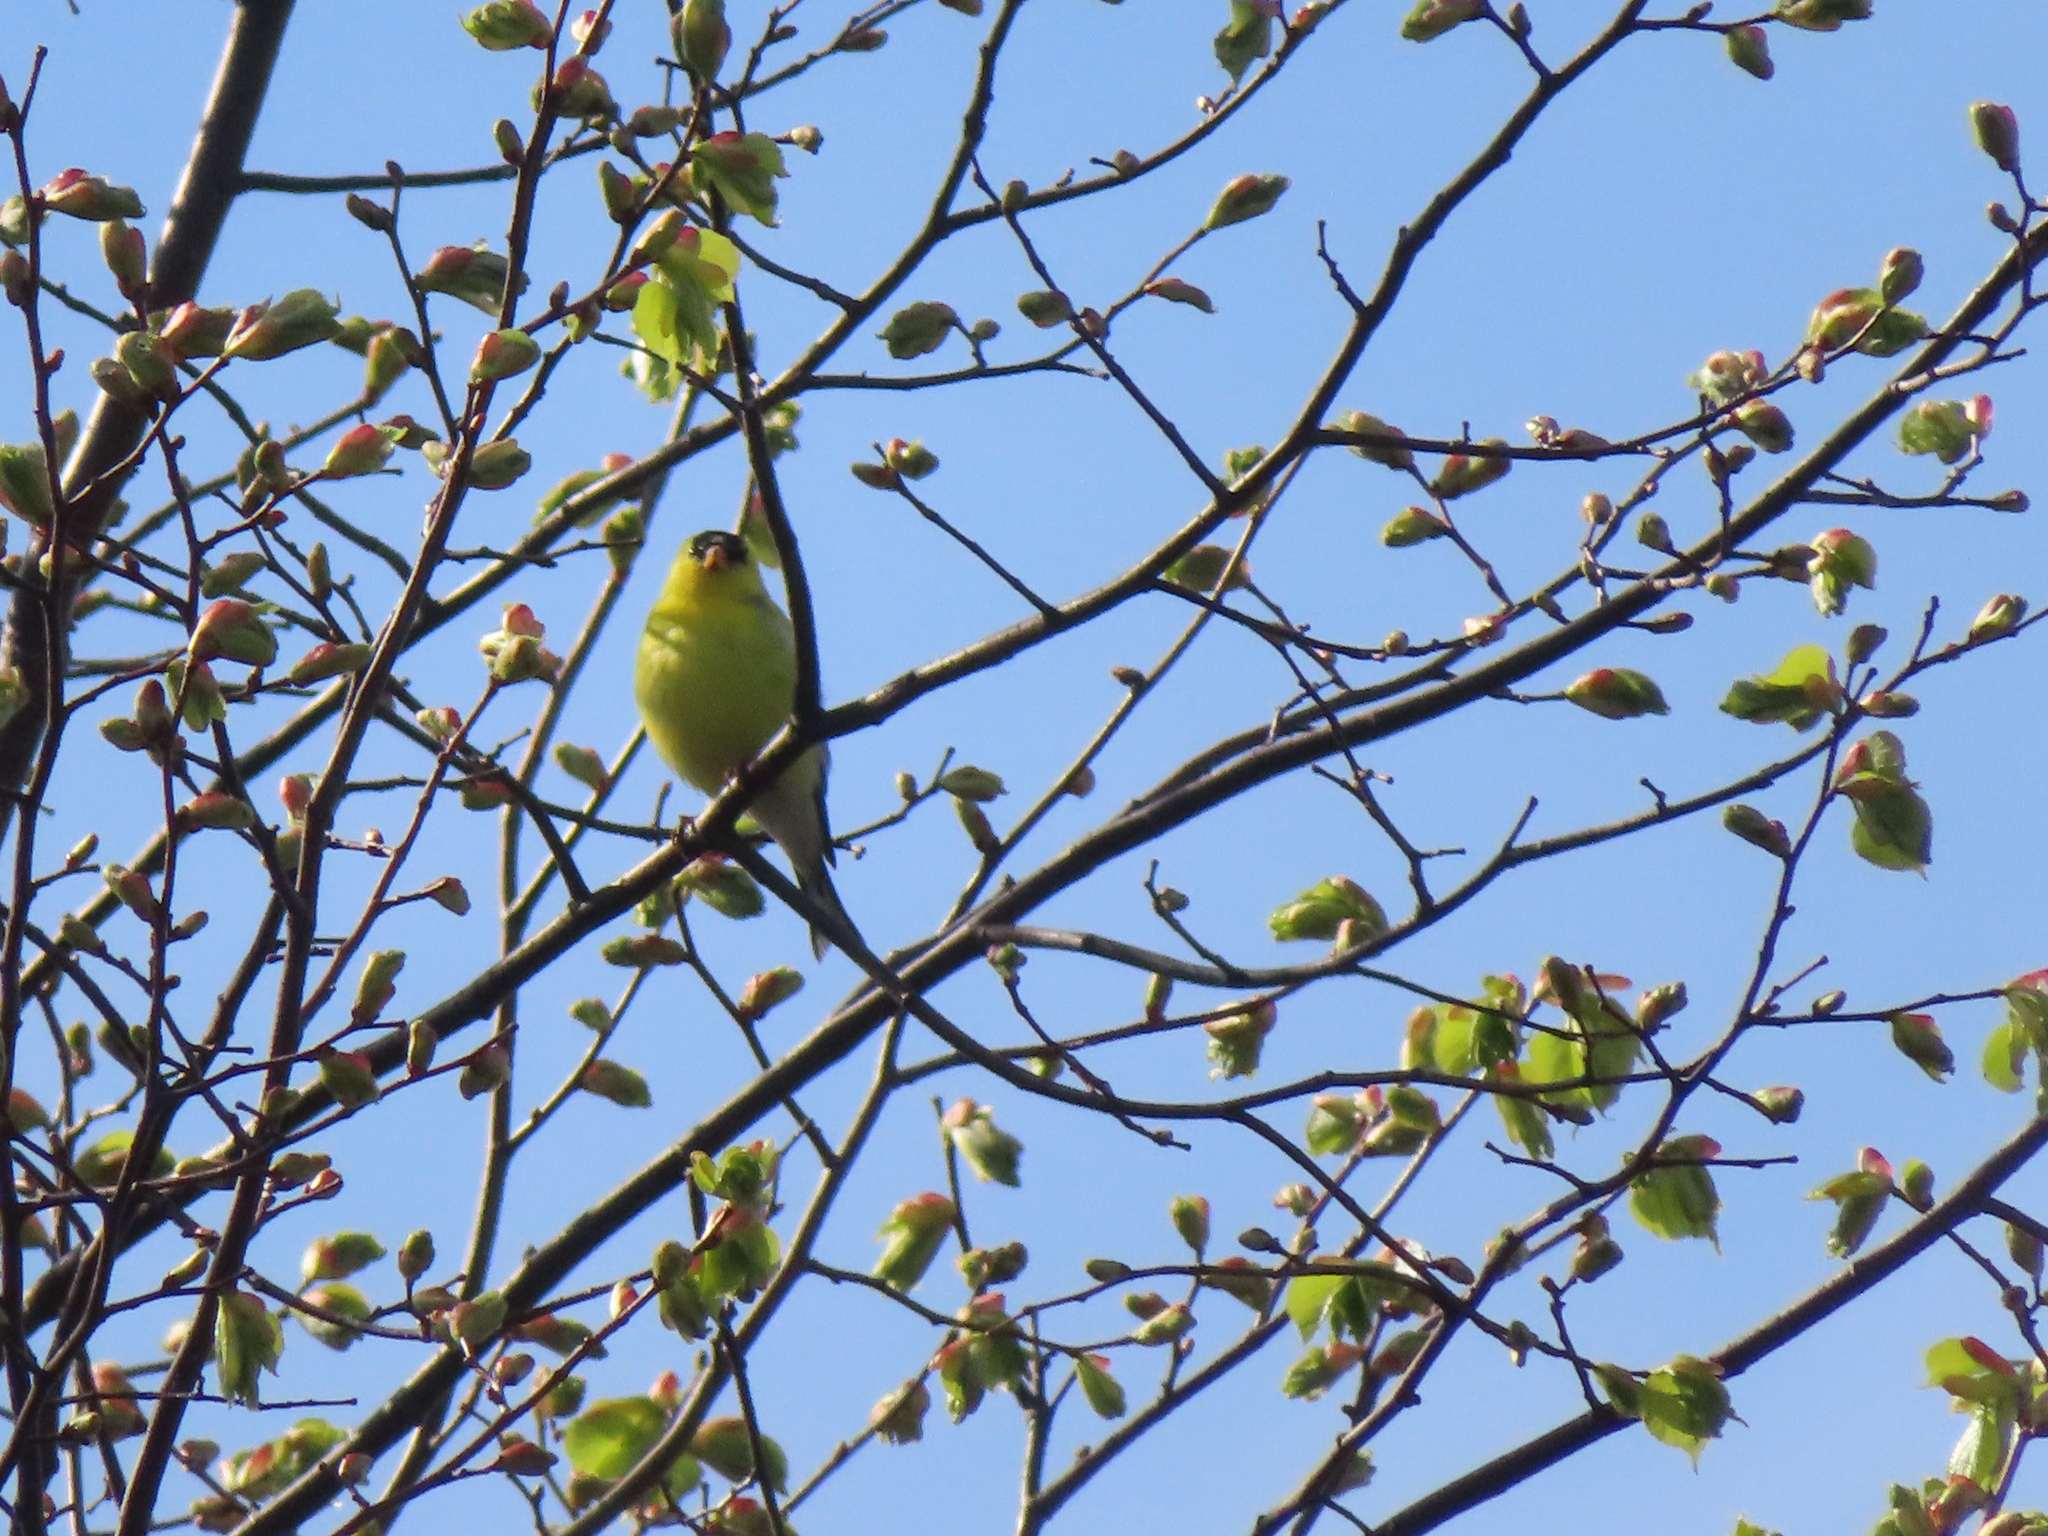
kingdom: Animalia
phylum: Chordata
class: Aves
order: Passeriformes
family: Fringillidae
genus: Spinus
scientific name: Spinus tristis
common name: American goldfinch
